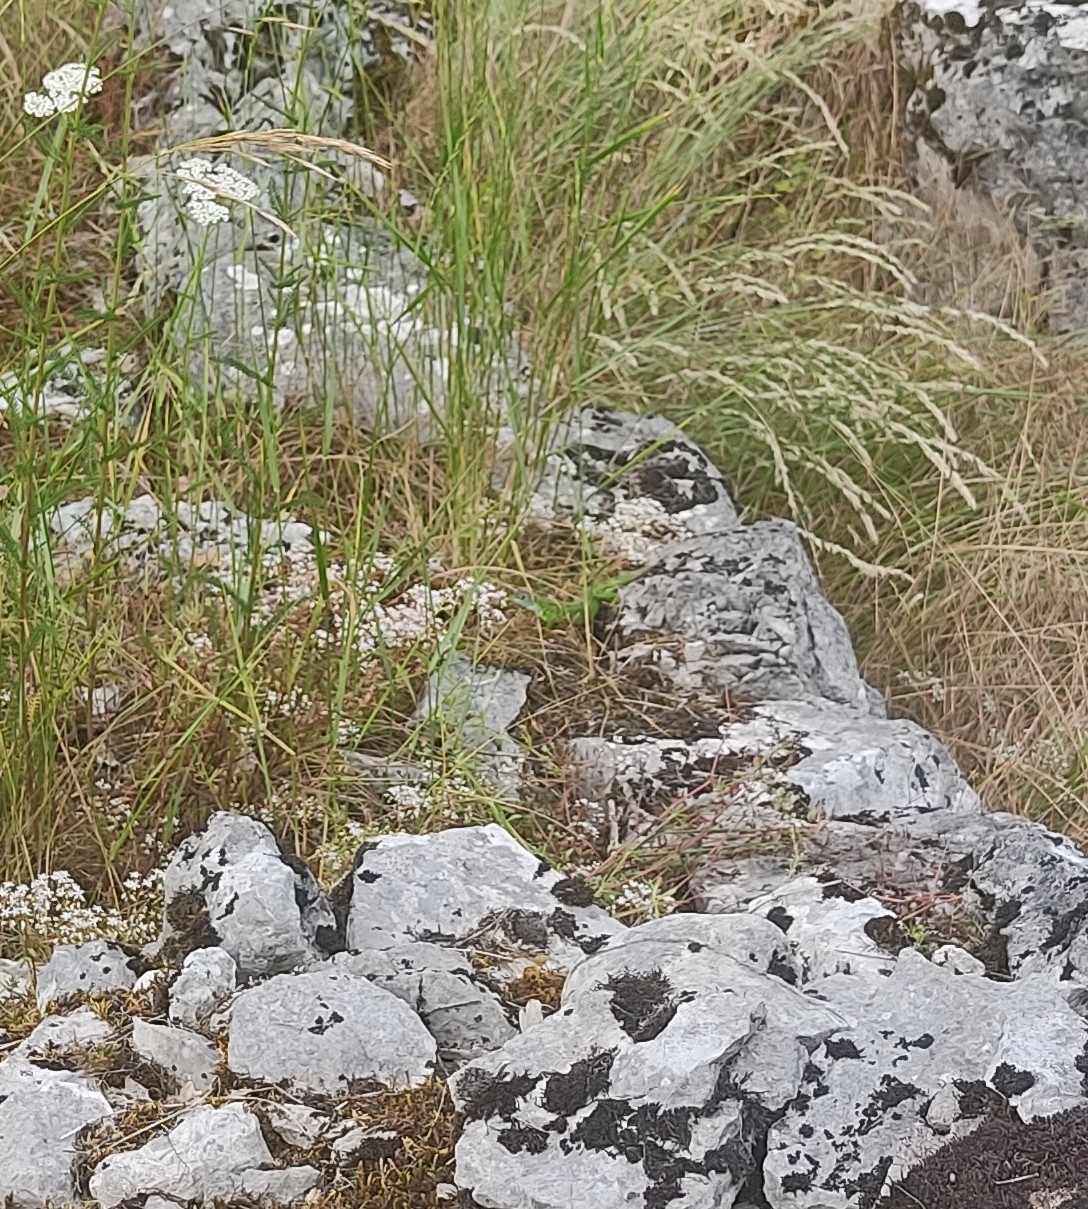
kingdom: Animalia
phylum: Chordata
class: Squamata
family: Lacertidae
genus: Lacerta
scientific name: Lacerta bilineata
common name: Western green lizard
